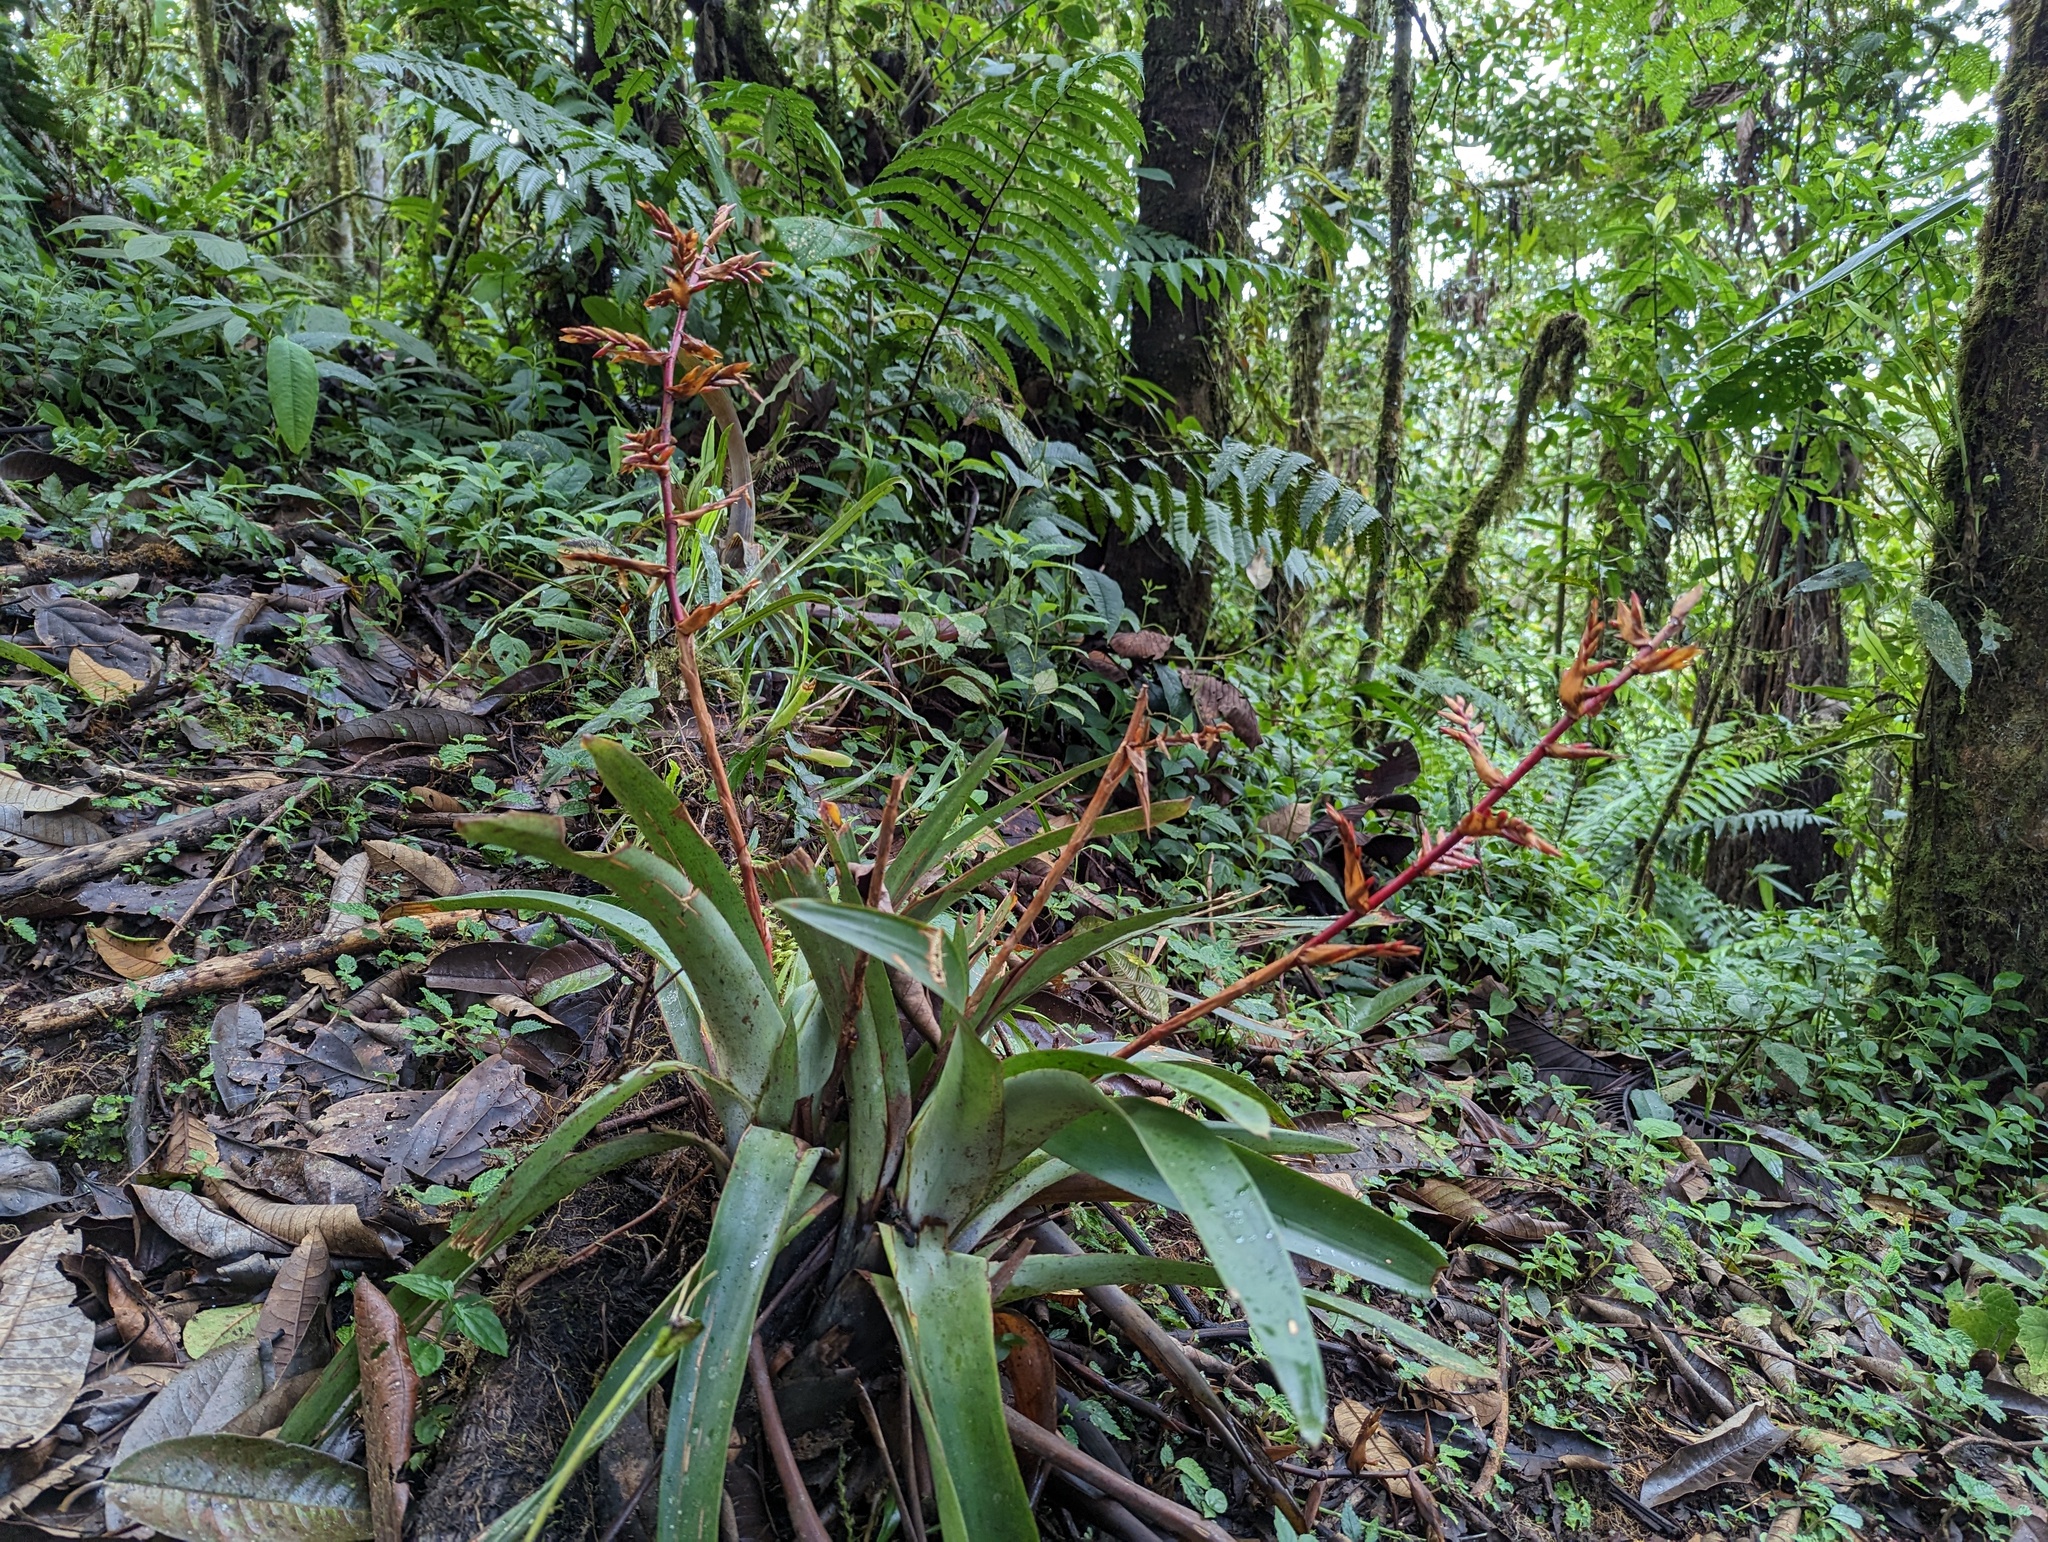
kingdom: Plantae
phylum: Tracheophyta
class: Liliopsida
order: Poales
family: Bromeliaceae
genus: Cipuropsis
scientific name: Cipuropsis truncata
